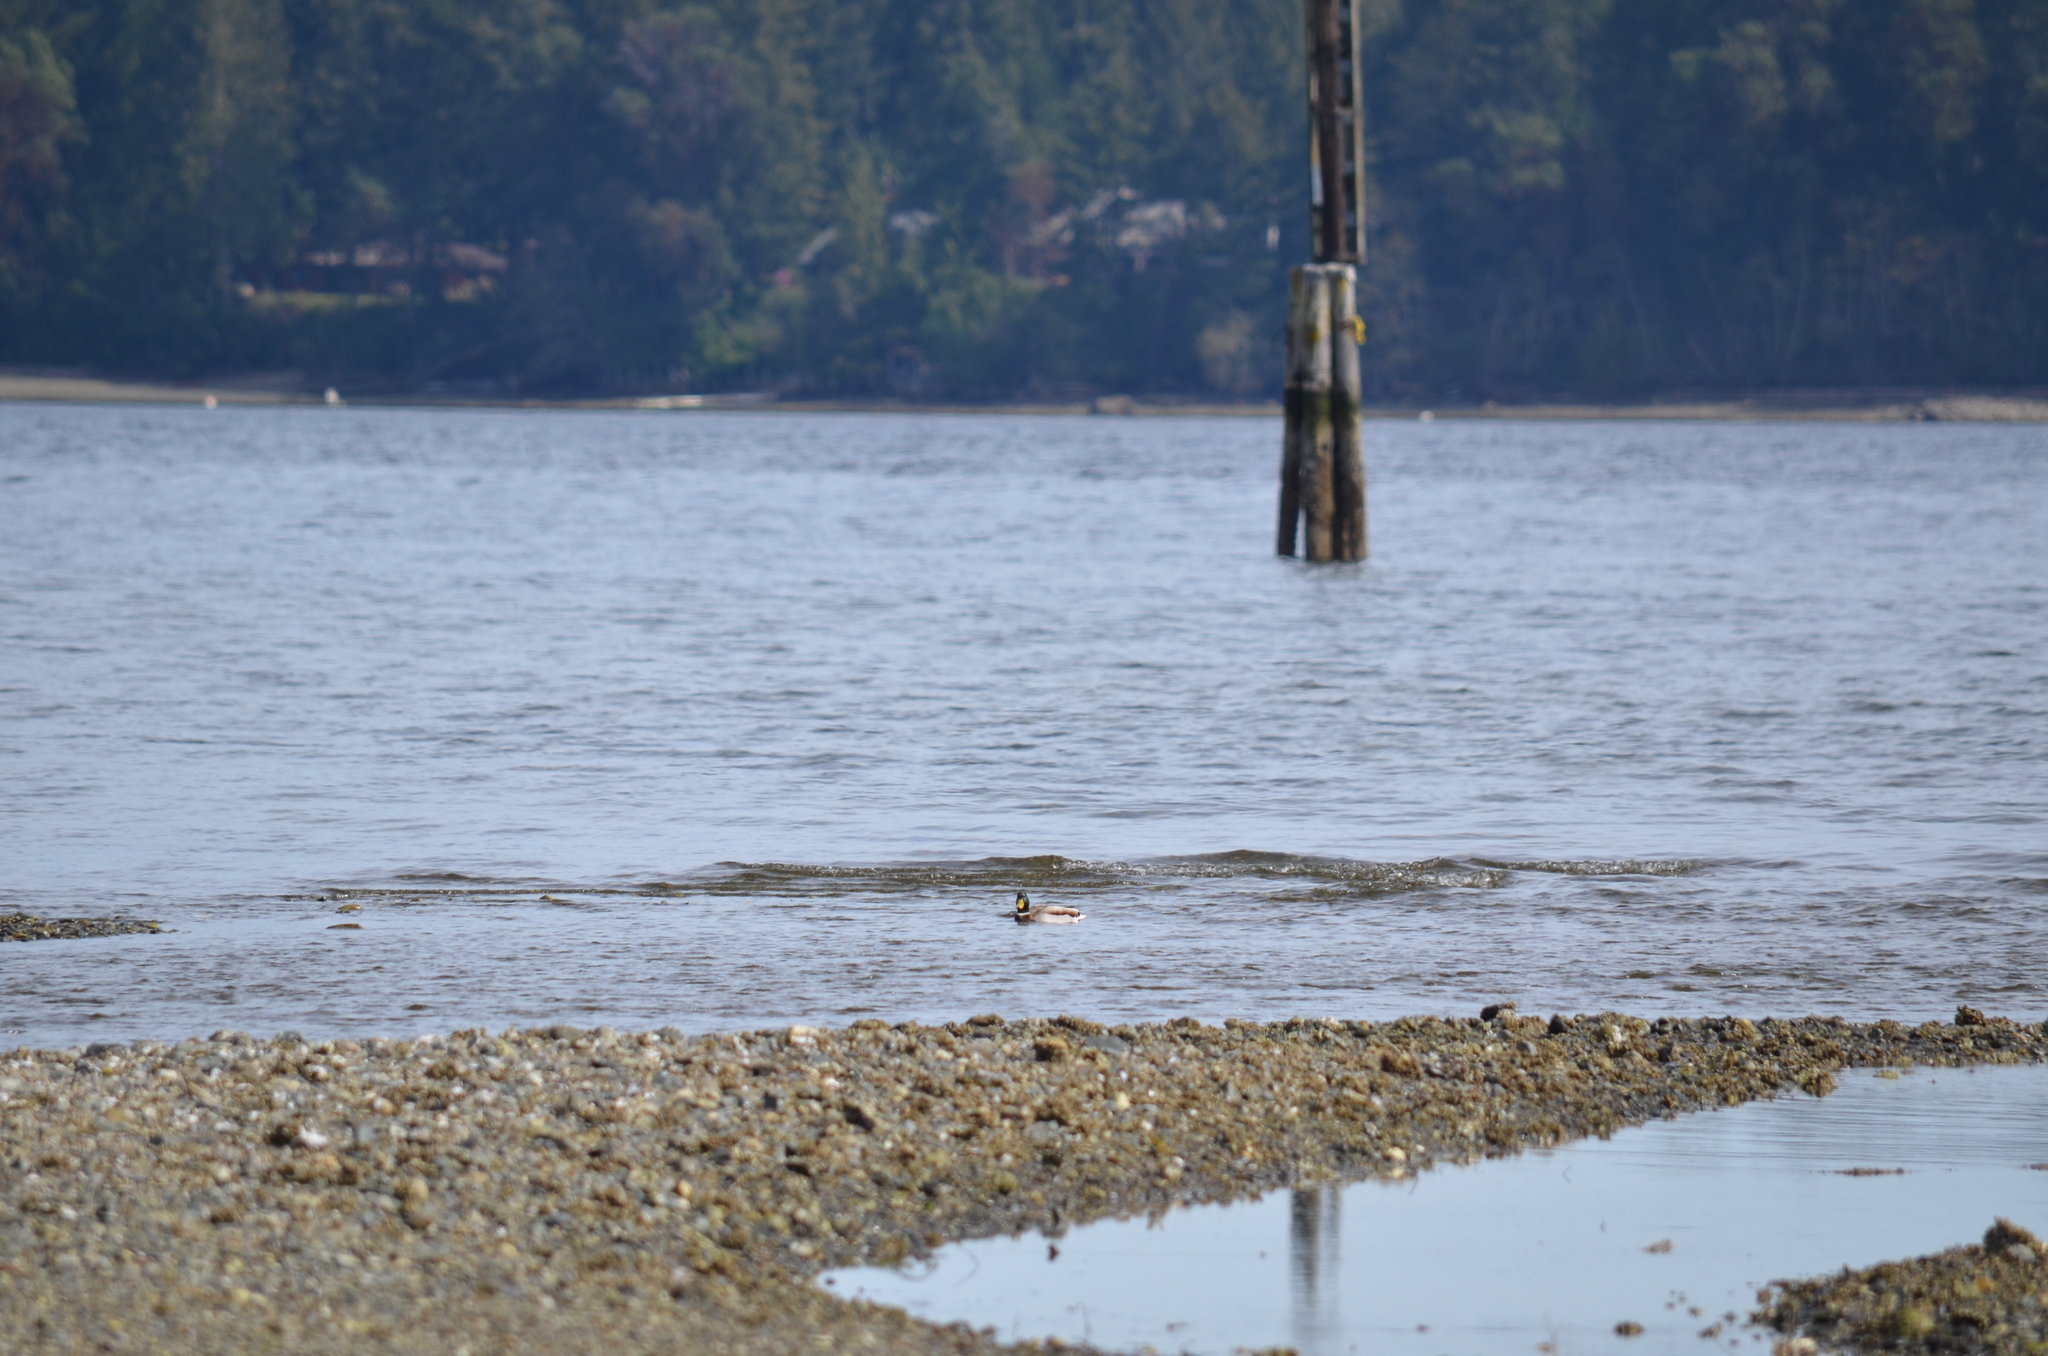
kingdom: Animalia
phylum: Chordata
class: Aves
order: Anseriformes
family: Anatidae
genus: Anas
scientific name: Anas platyrhynchos
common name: Mallard
